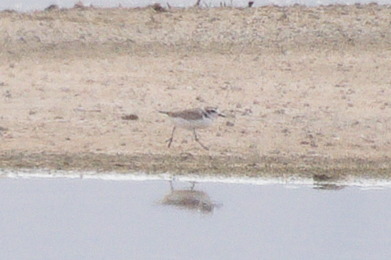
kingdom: Animalia
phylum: Chordata
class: Aves
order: Charadriiformes
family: Charadriidae
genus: Anarhynchus
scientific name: Anarhynchus
